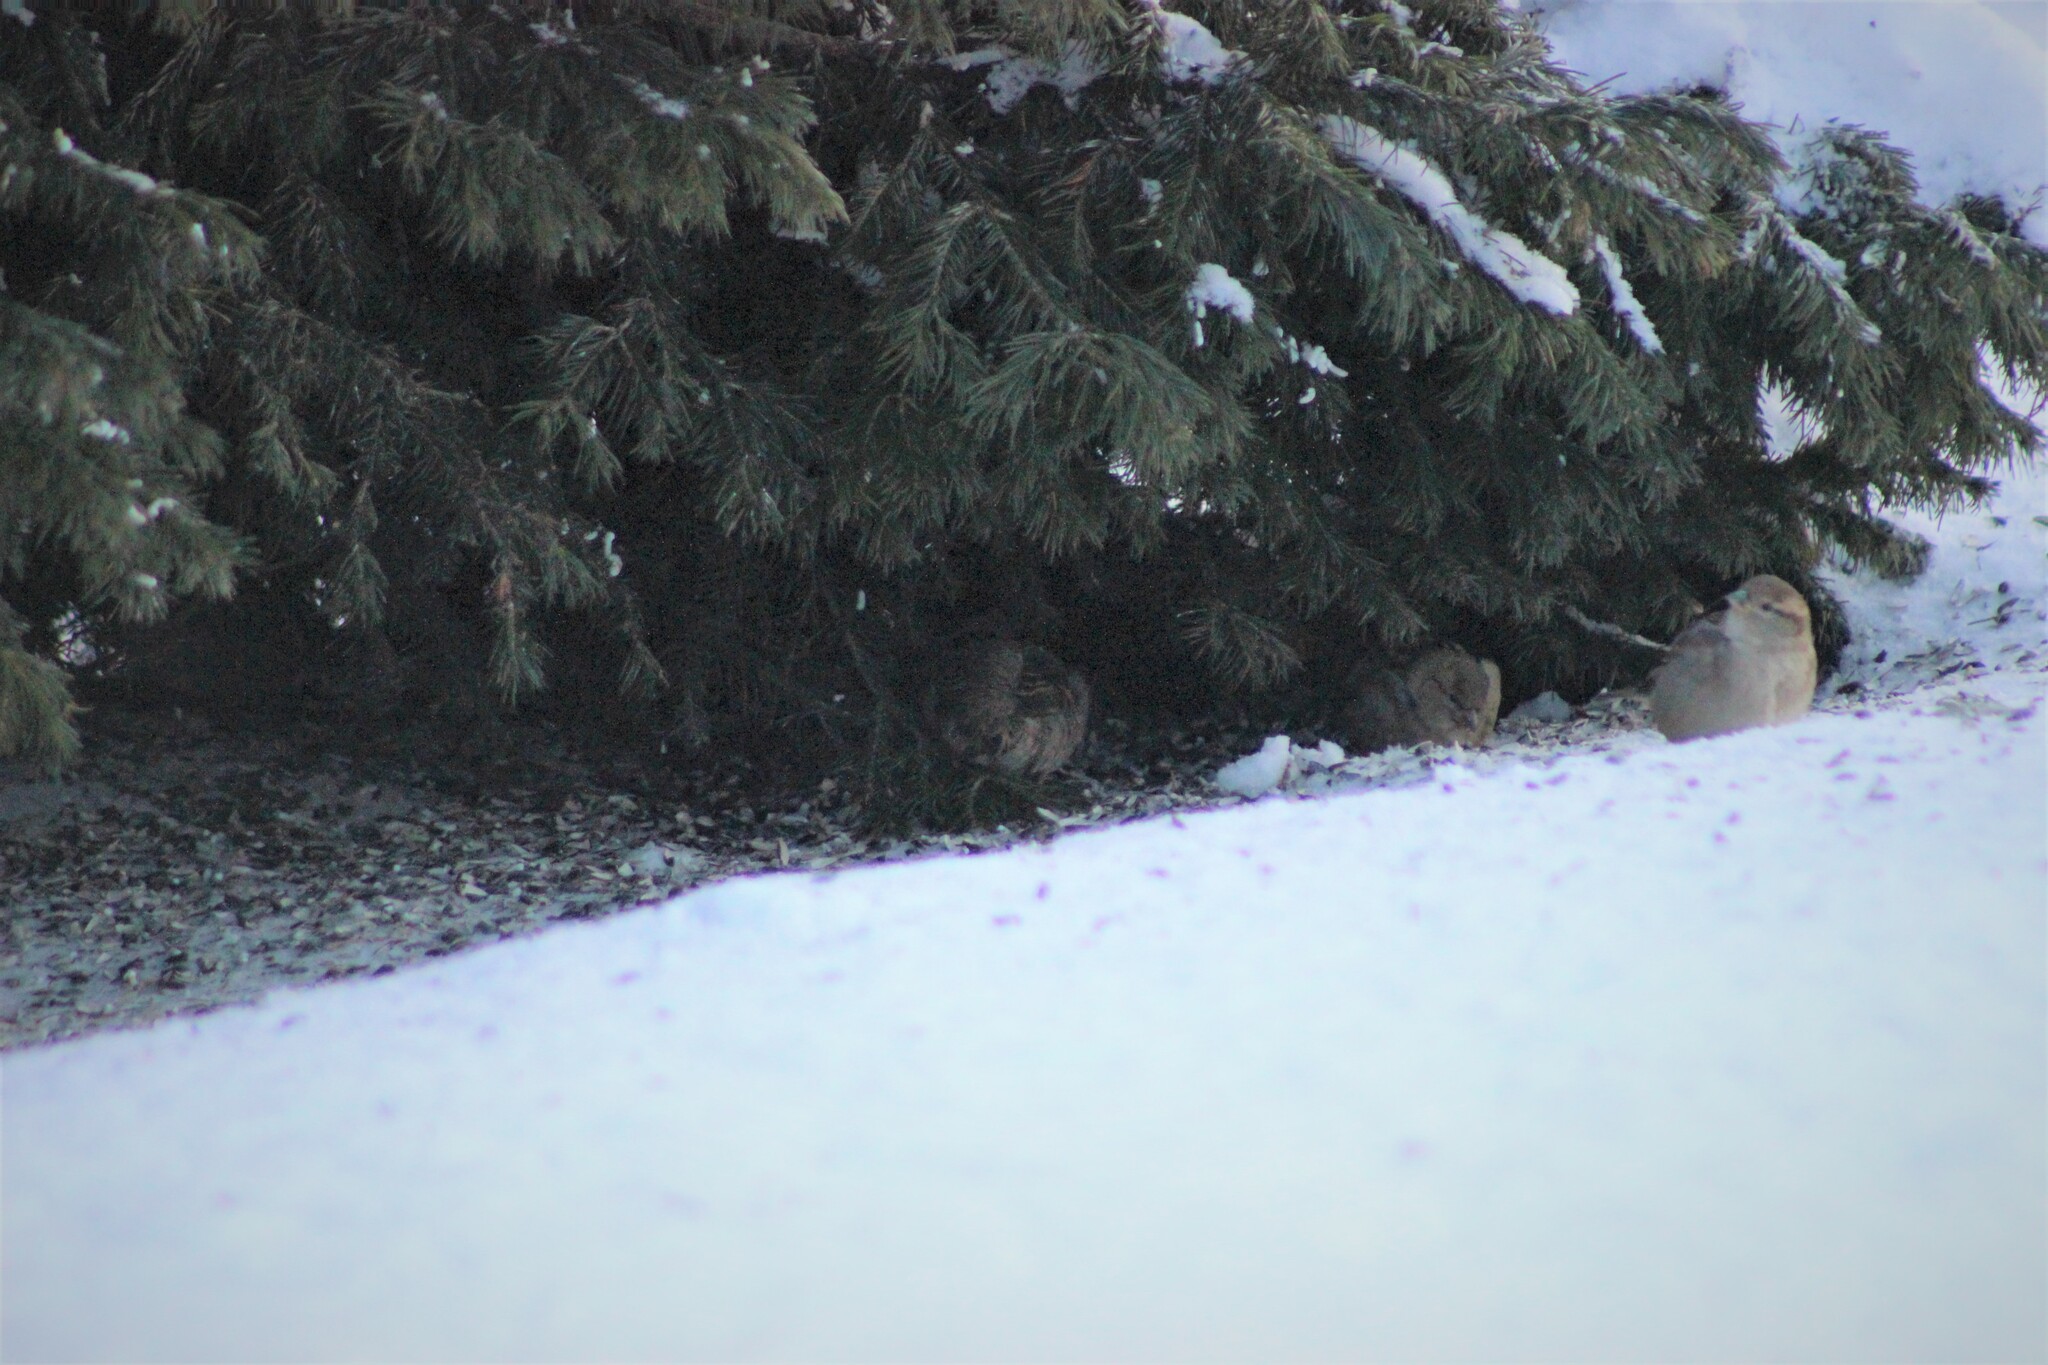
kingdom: Animalia
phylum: Chordata
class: Aves
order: Passeriformes
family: Passeridae
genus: Passer
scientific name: Passer domesticus
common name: House sparrow
